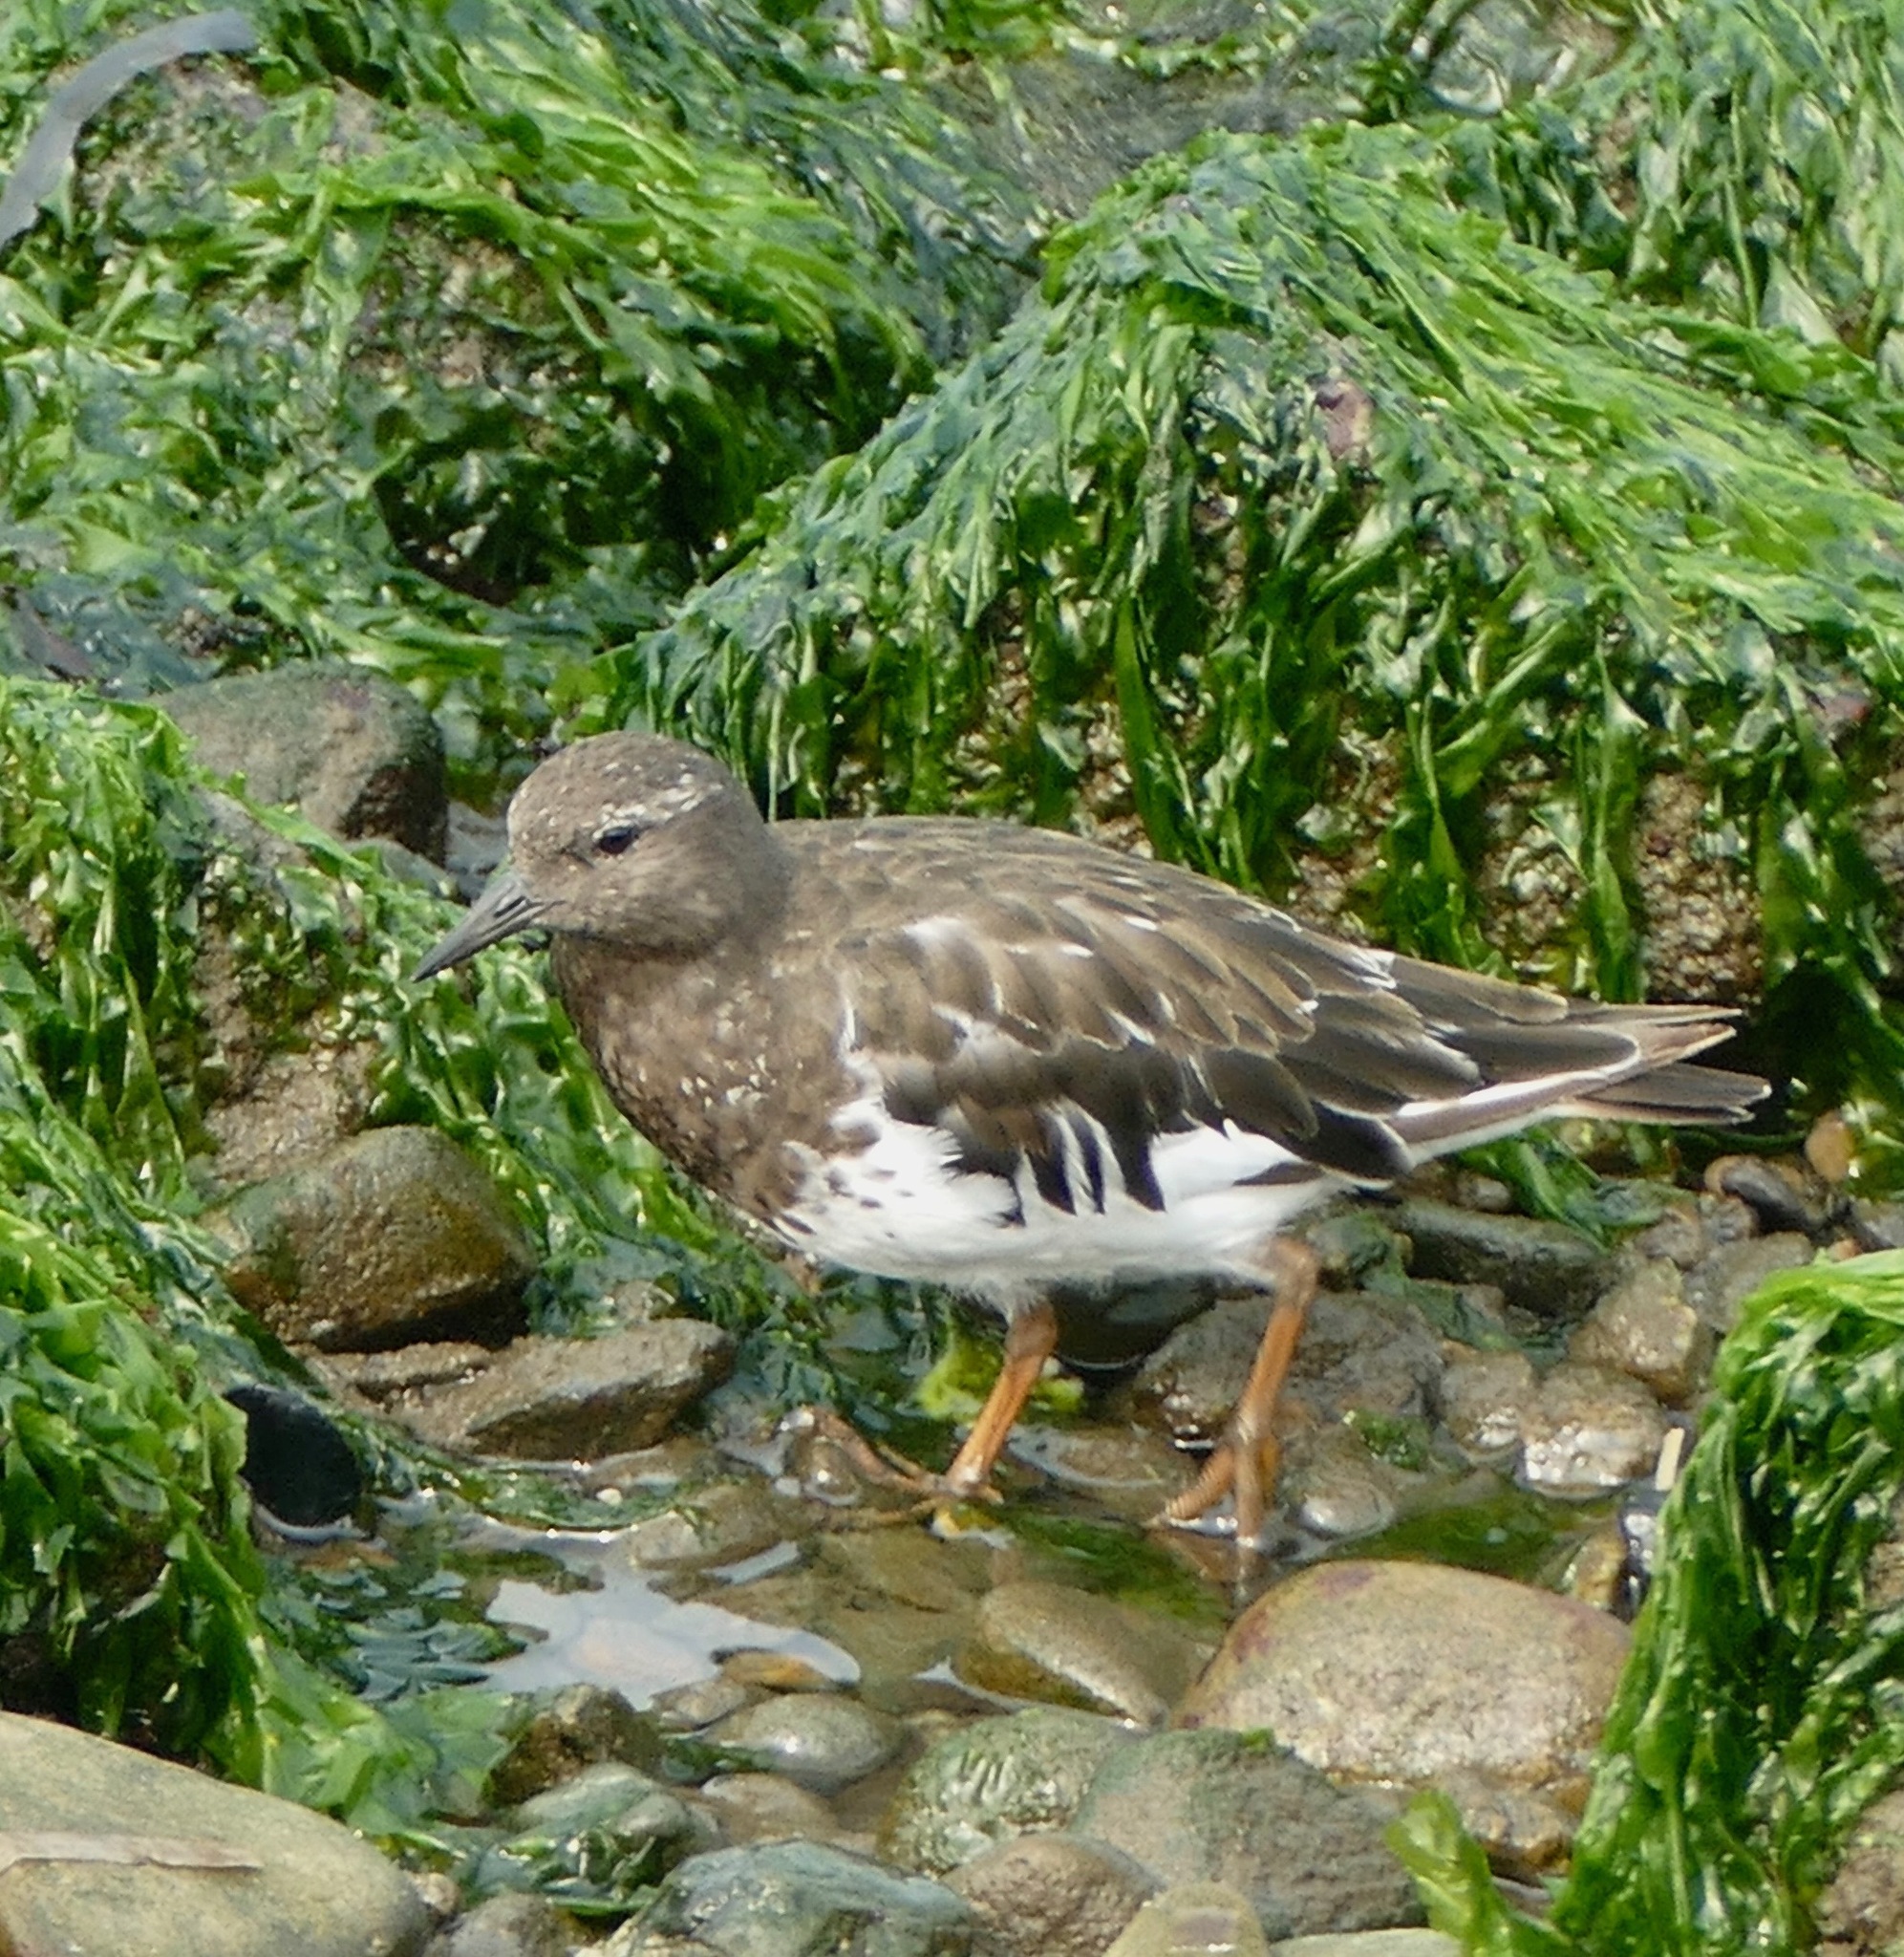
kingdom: Animalia
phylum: Chordata
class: Aves
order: Charadriiformes
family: Scolopacidae
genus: Arenaria
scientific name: Arenaria melanocephala
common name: Black turnstone
